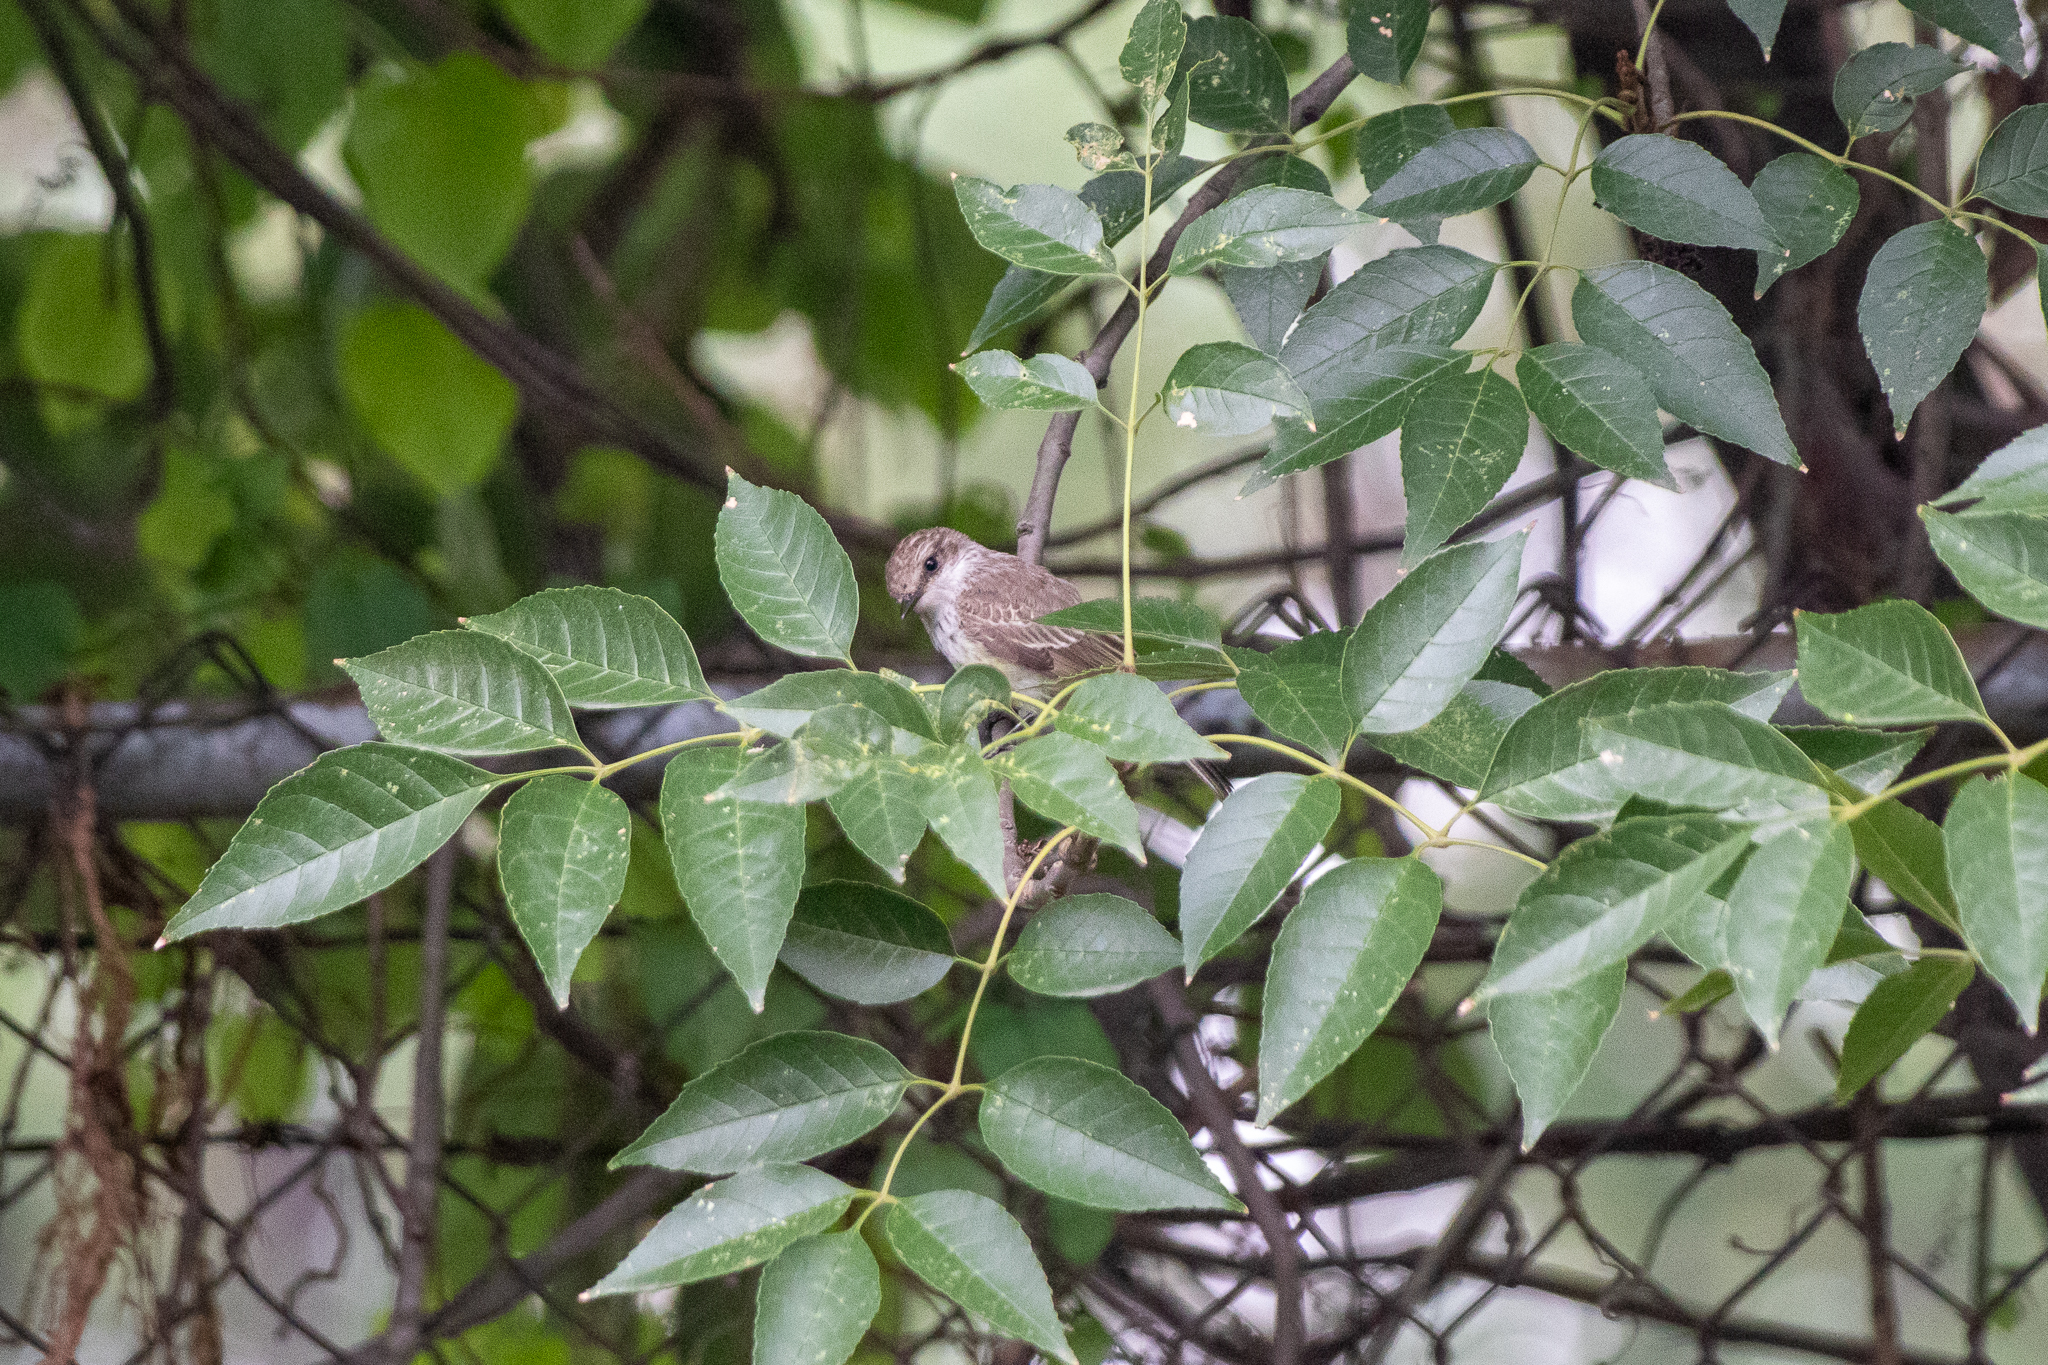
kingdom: Animalia
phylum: Chordata
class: Aves
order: Passeriformes
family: Tyrannidae
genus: Pyrocephalus
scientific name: Pyrocephalus rubinus
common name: Vermilion flycatcher
